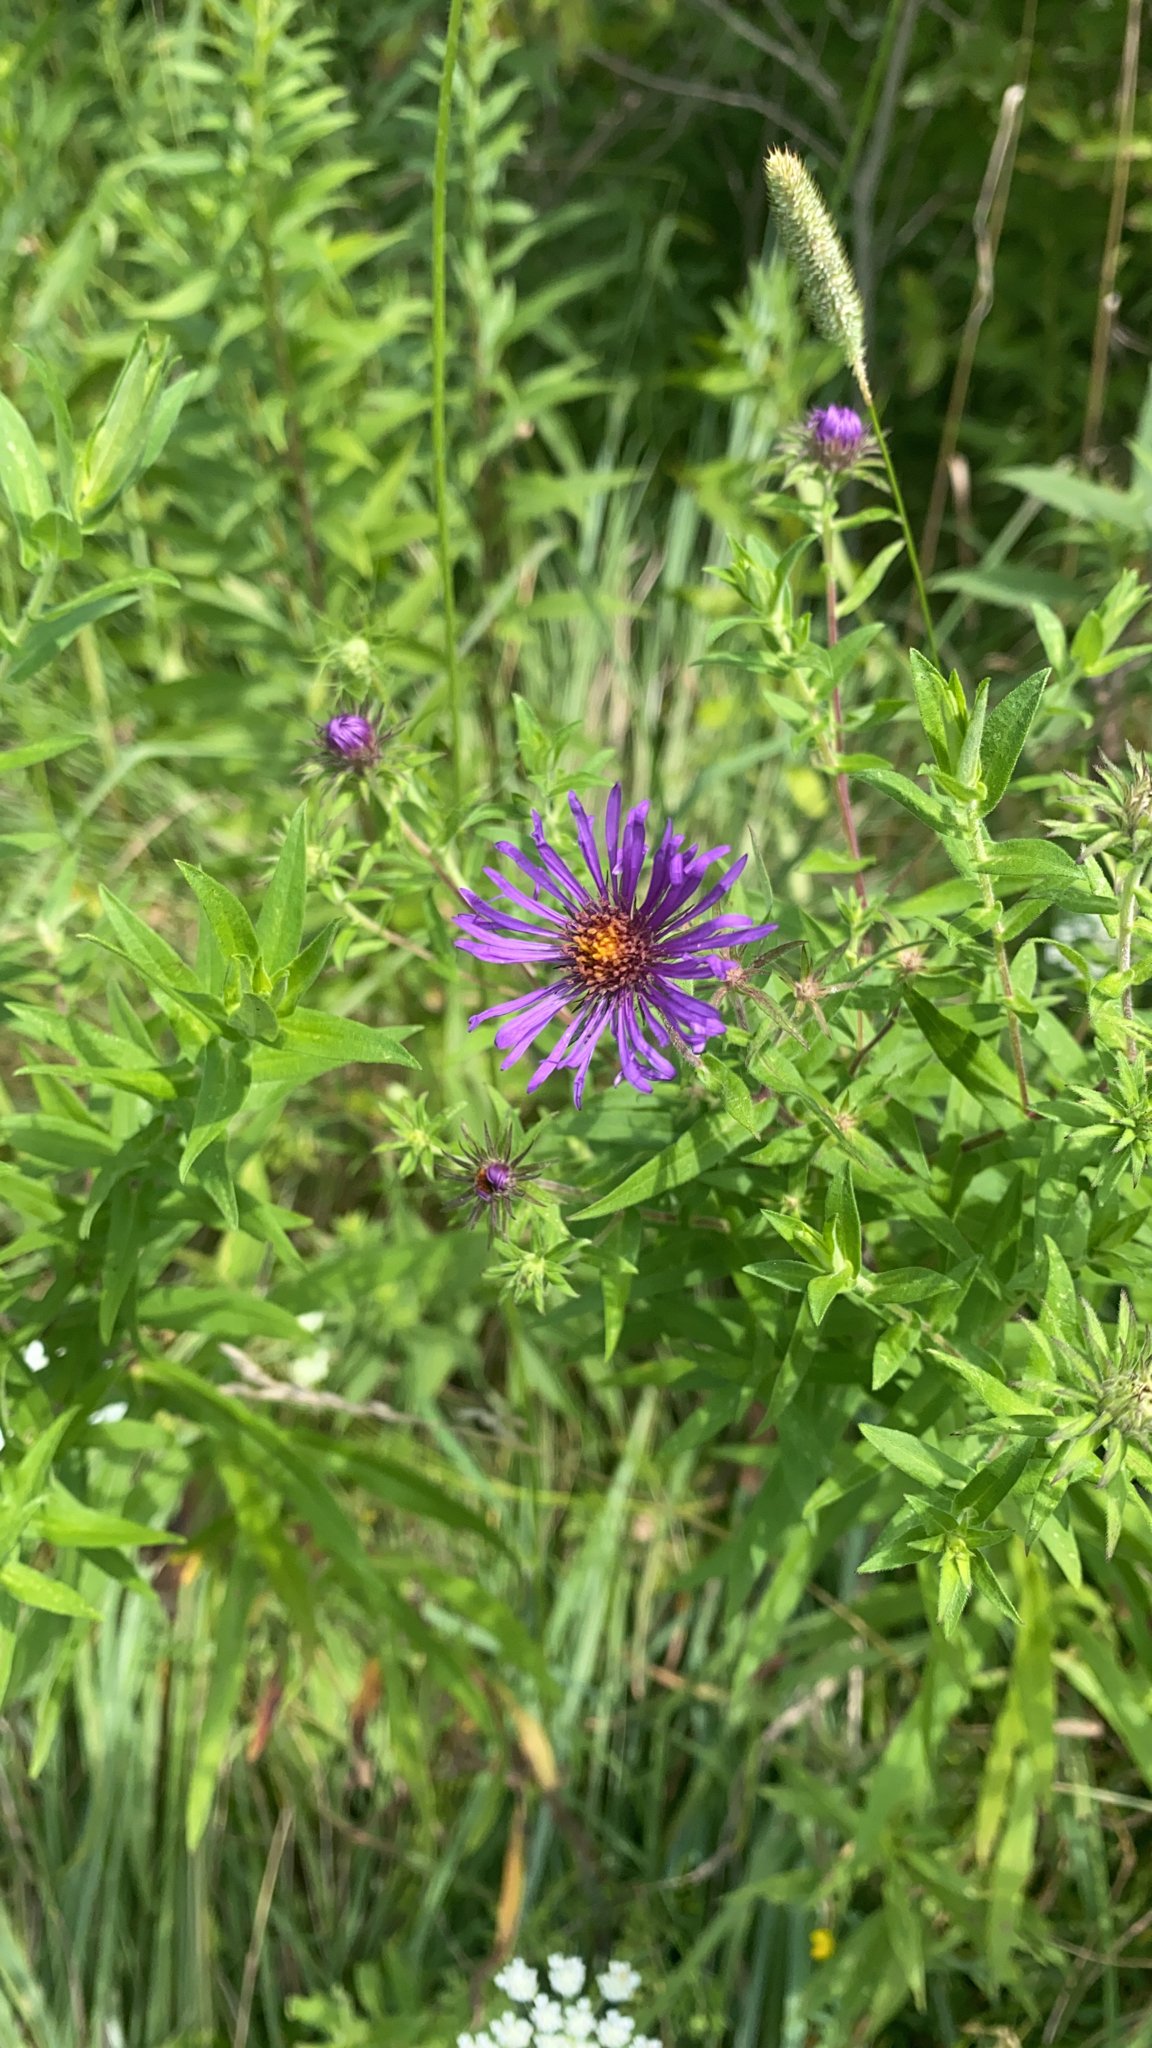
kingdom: Plantae
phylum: Tracheophyta
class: Magnoliopsida
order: Asterales
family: Asteraceae
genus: Symphyotrichum
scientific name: Symphyotrichum novae-angliae
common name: Michaelmas daisy
